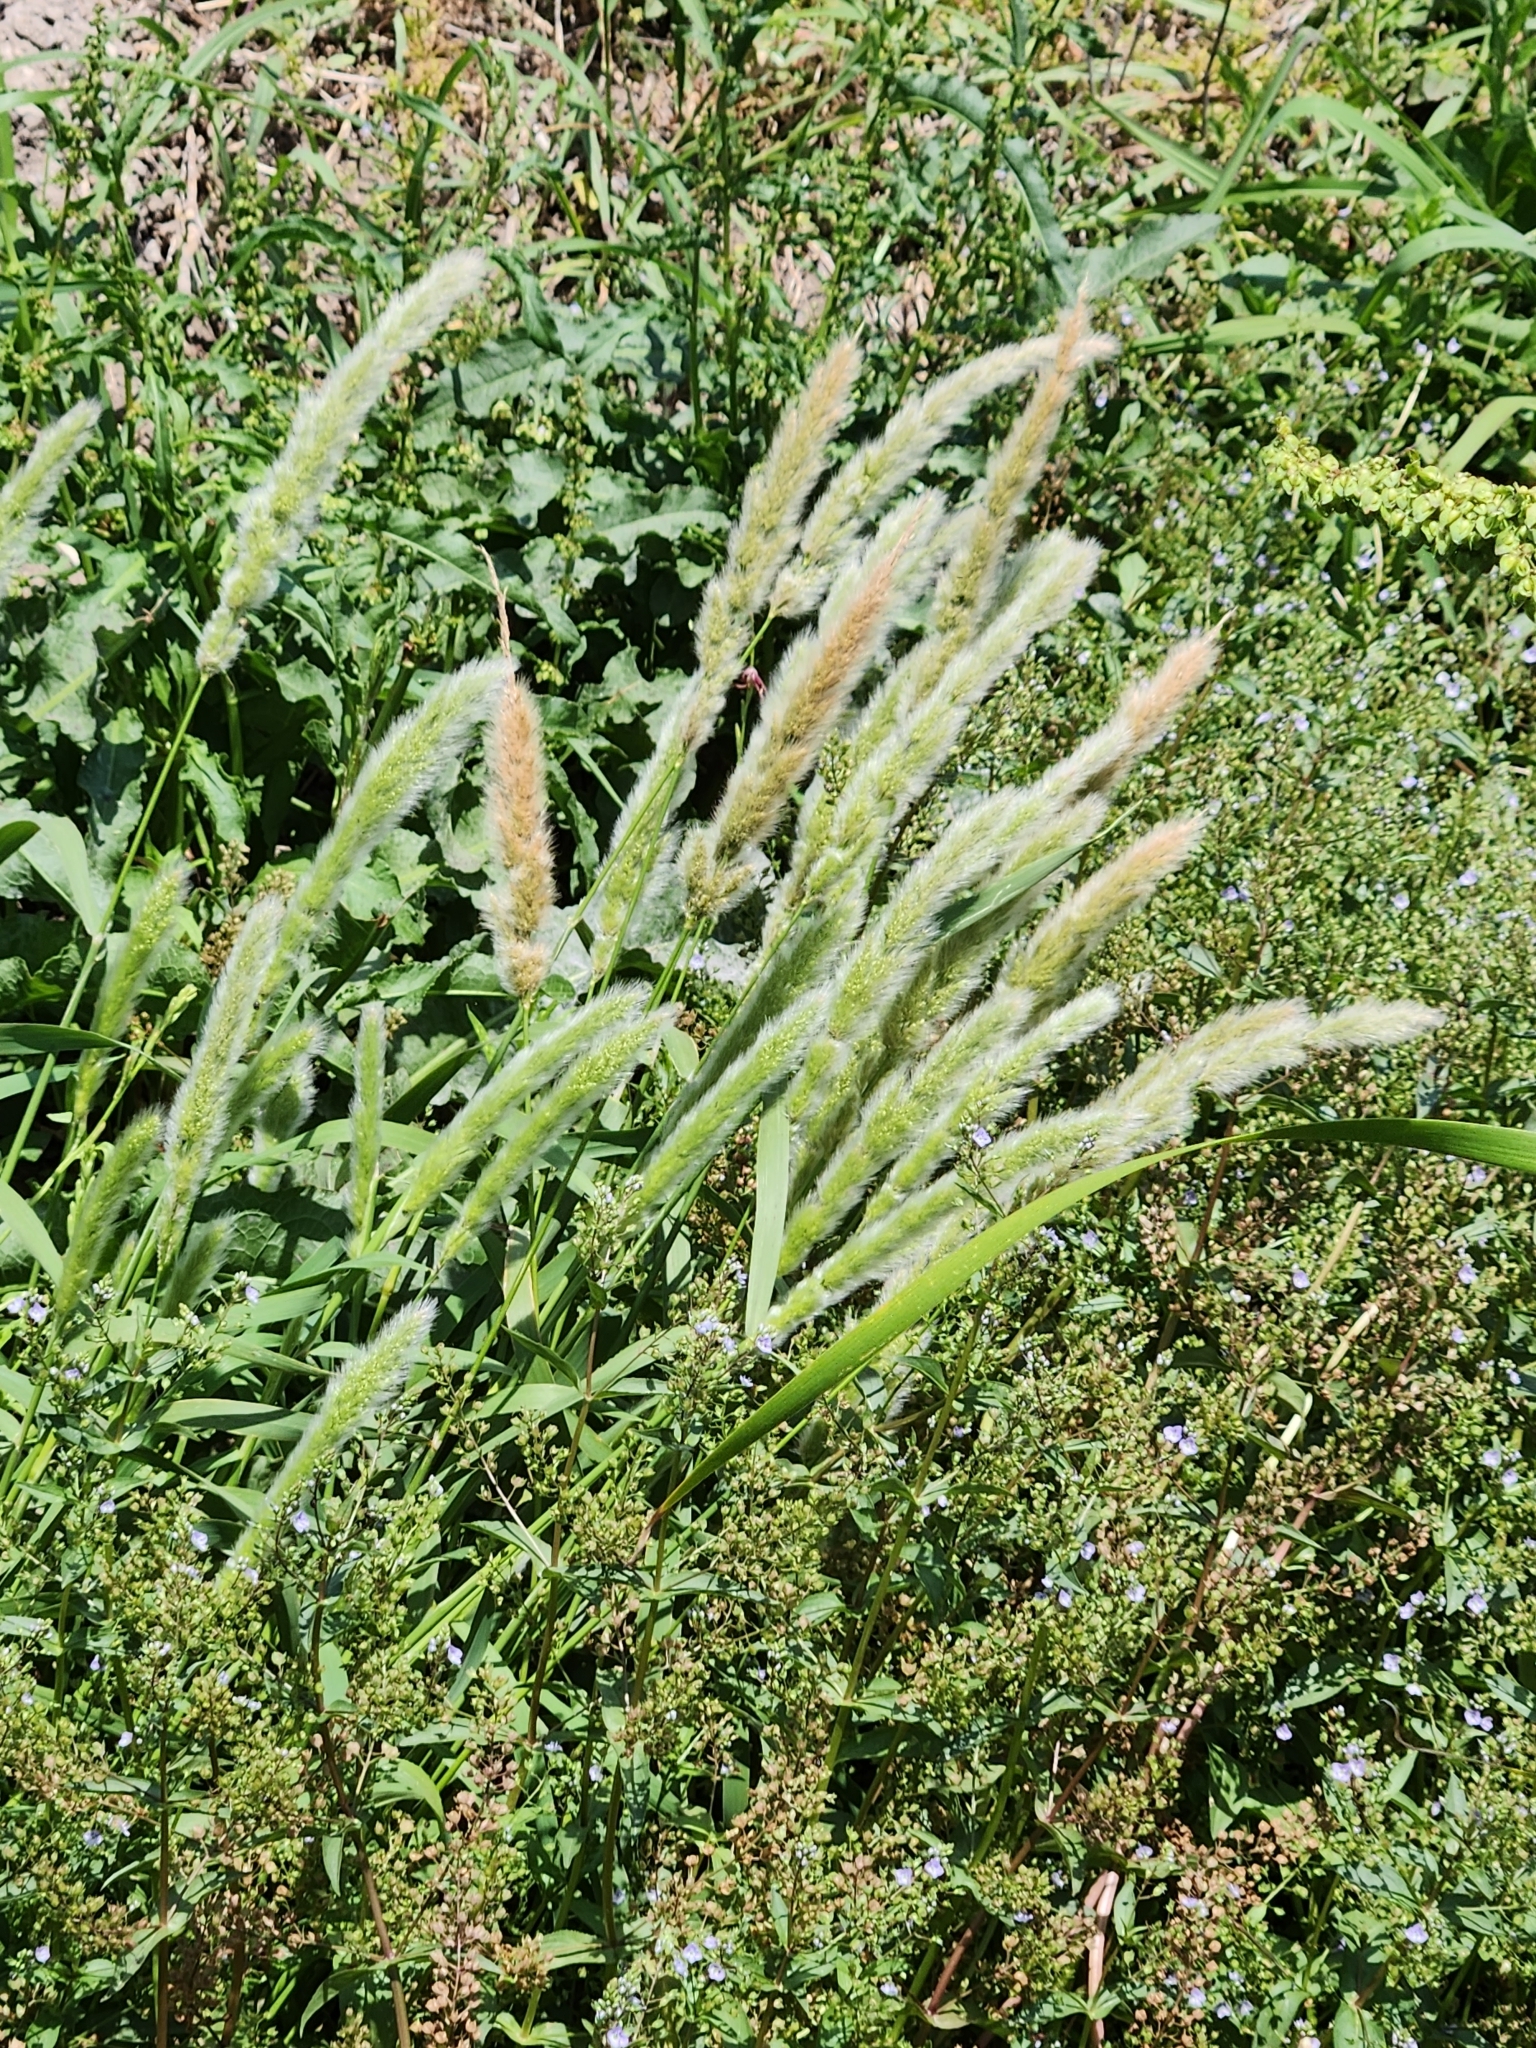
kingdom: Plantae
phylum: Tracheophyta
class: Liliopsida
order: Poales
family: Poaceae
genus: Polypogon
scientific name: Polypogon monspeliensis
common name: Annual rabbitsfoot grass
